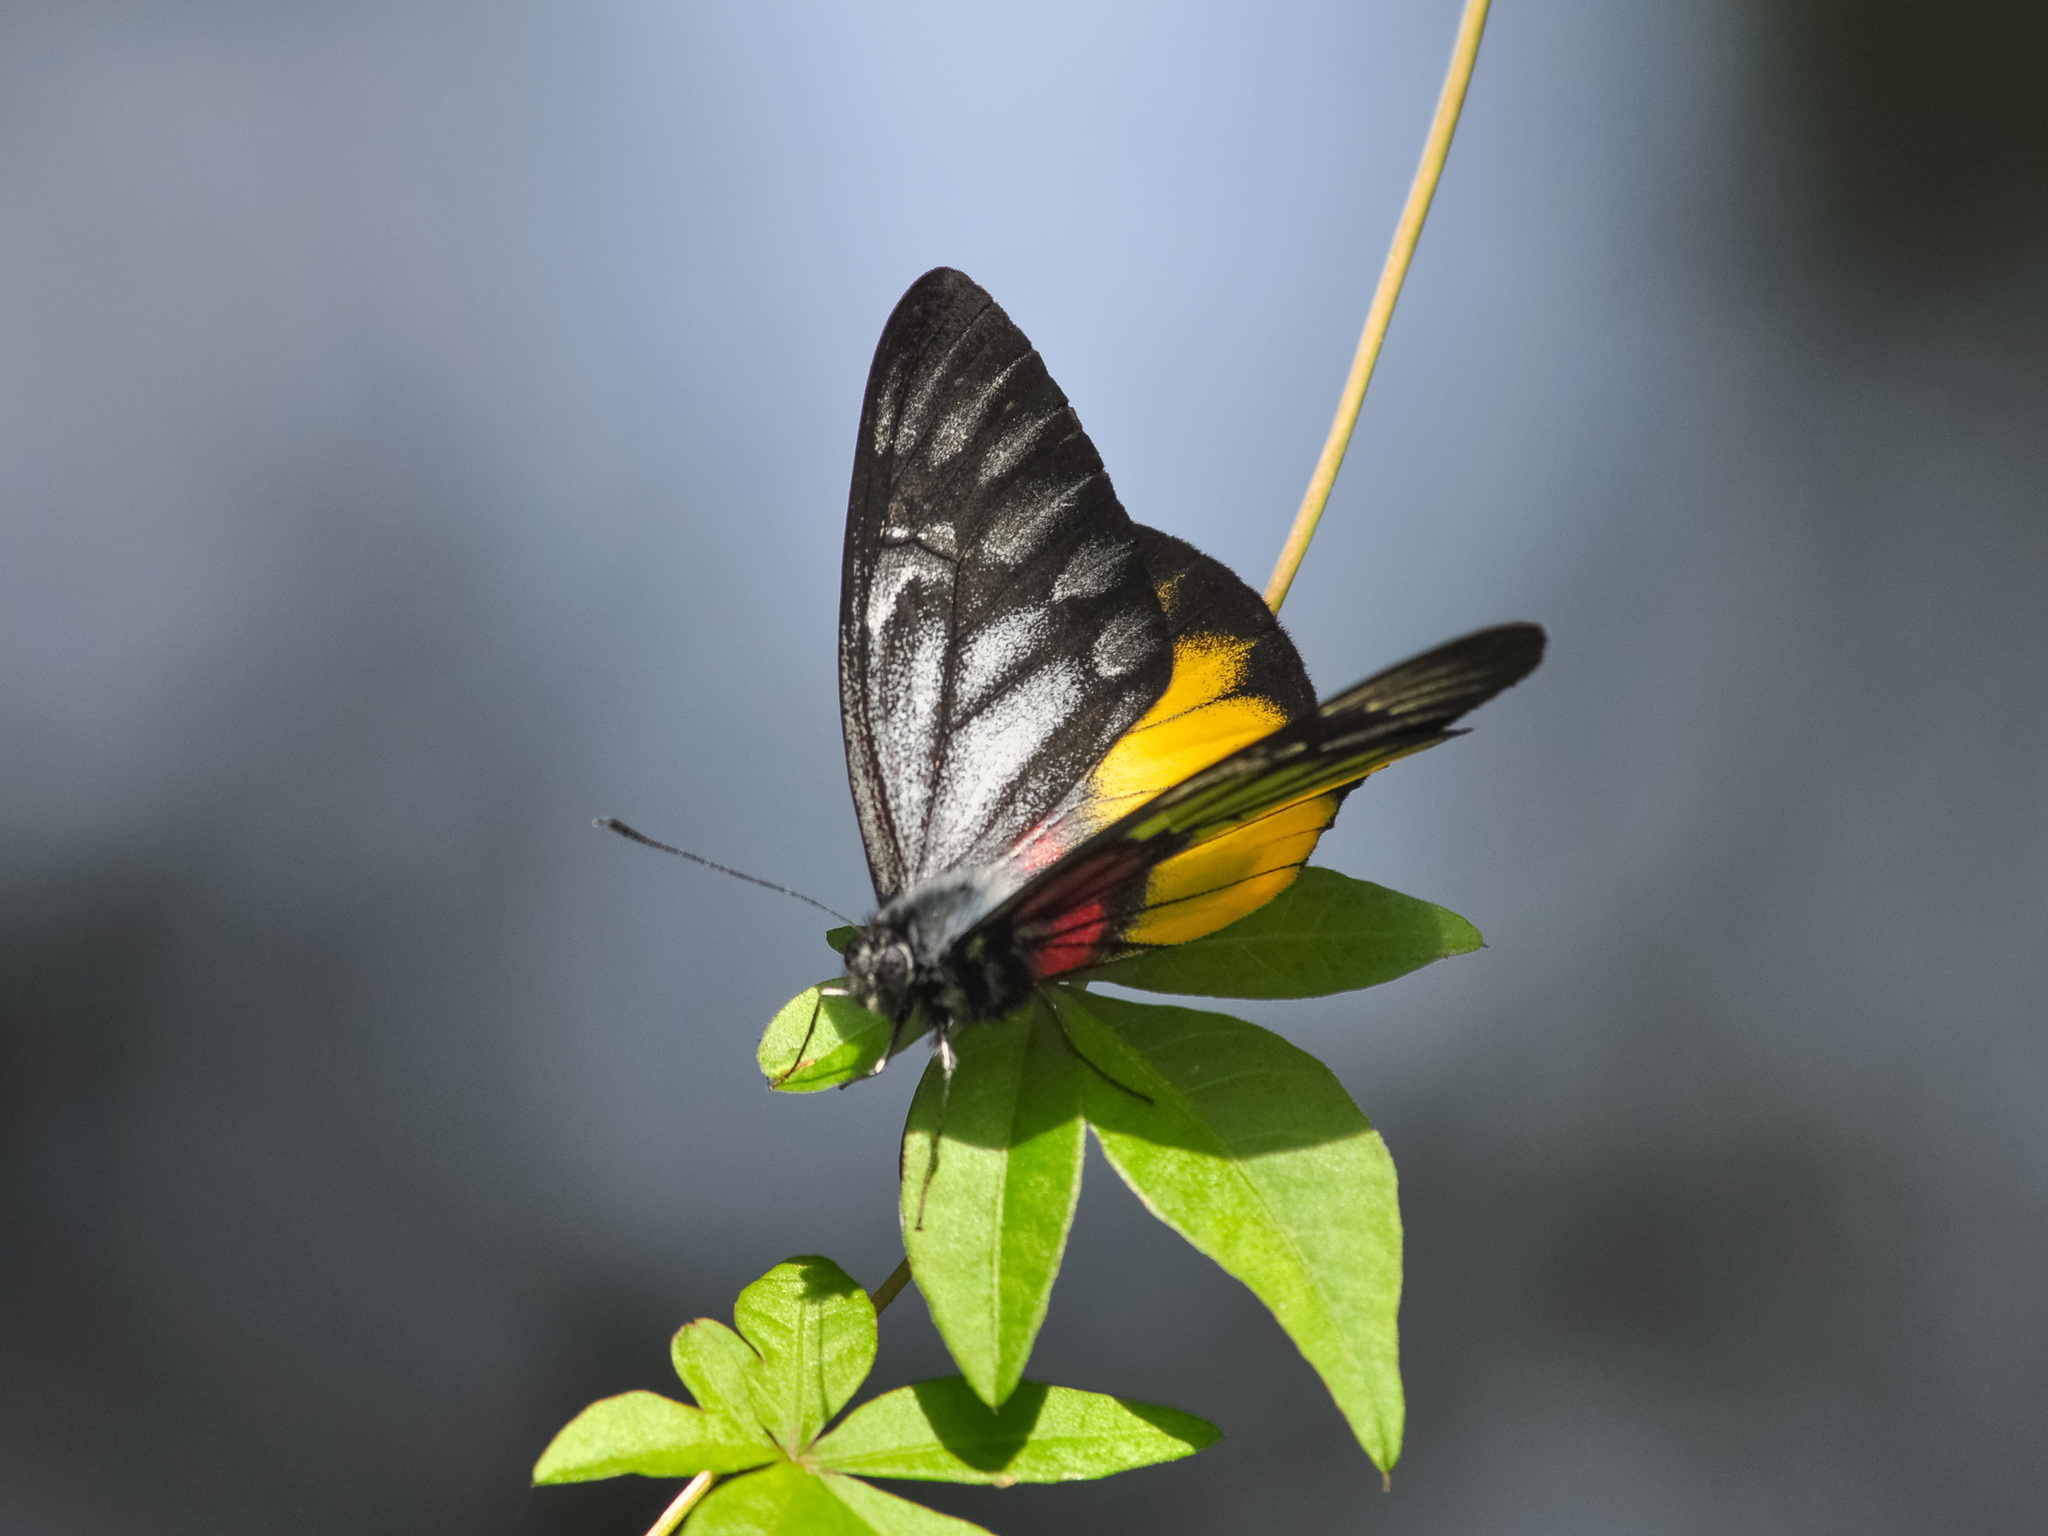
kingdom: Animalia
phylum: Arthropoda
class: Insecta
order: Lepidoptera
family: Pieridae
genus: Delias
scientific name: Delias ninus
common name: Malayan jezebel
